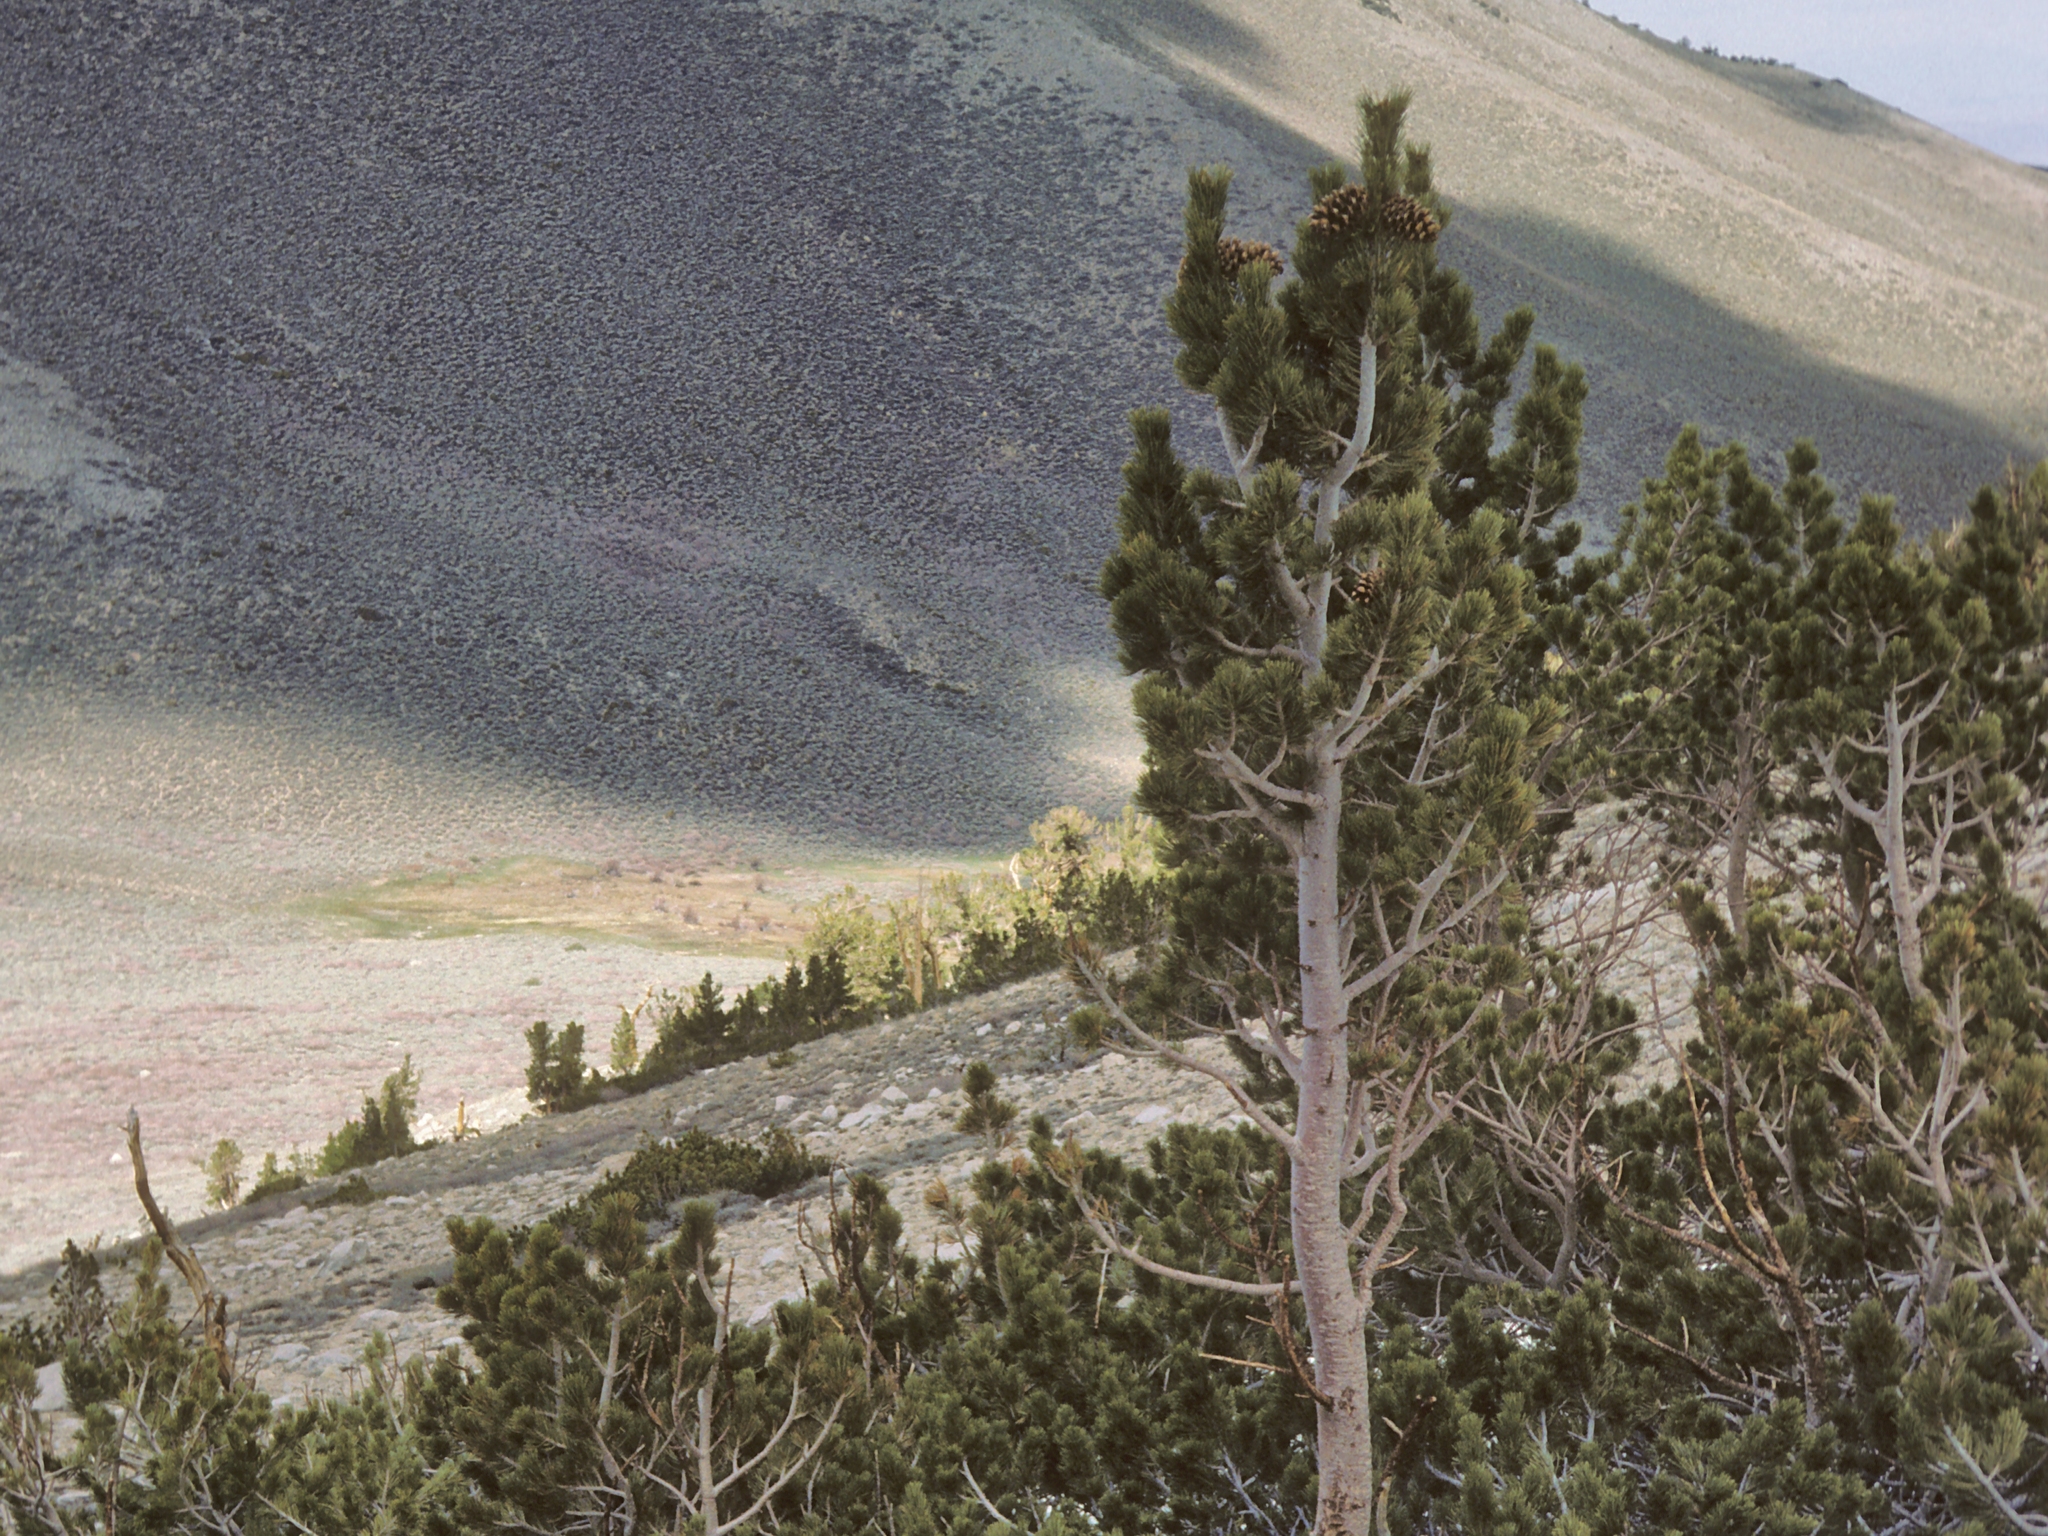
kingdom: Plantae
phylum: Tracheophyta
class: Pinopsida
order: Pinales
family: Pinaceae
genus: Pinus
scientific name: Pinus flexilis
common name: Limber pine
